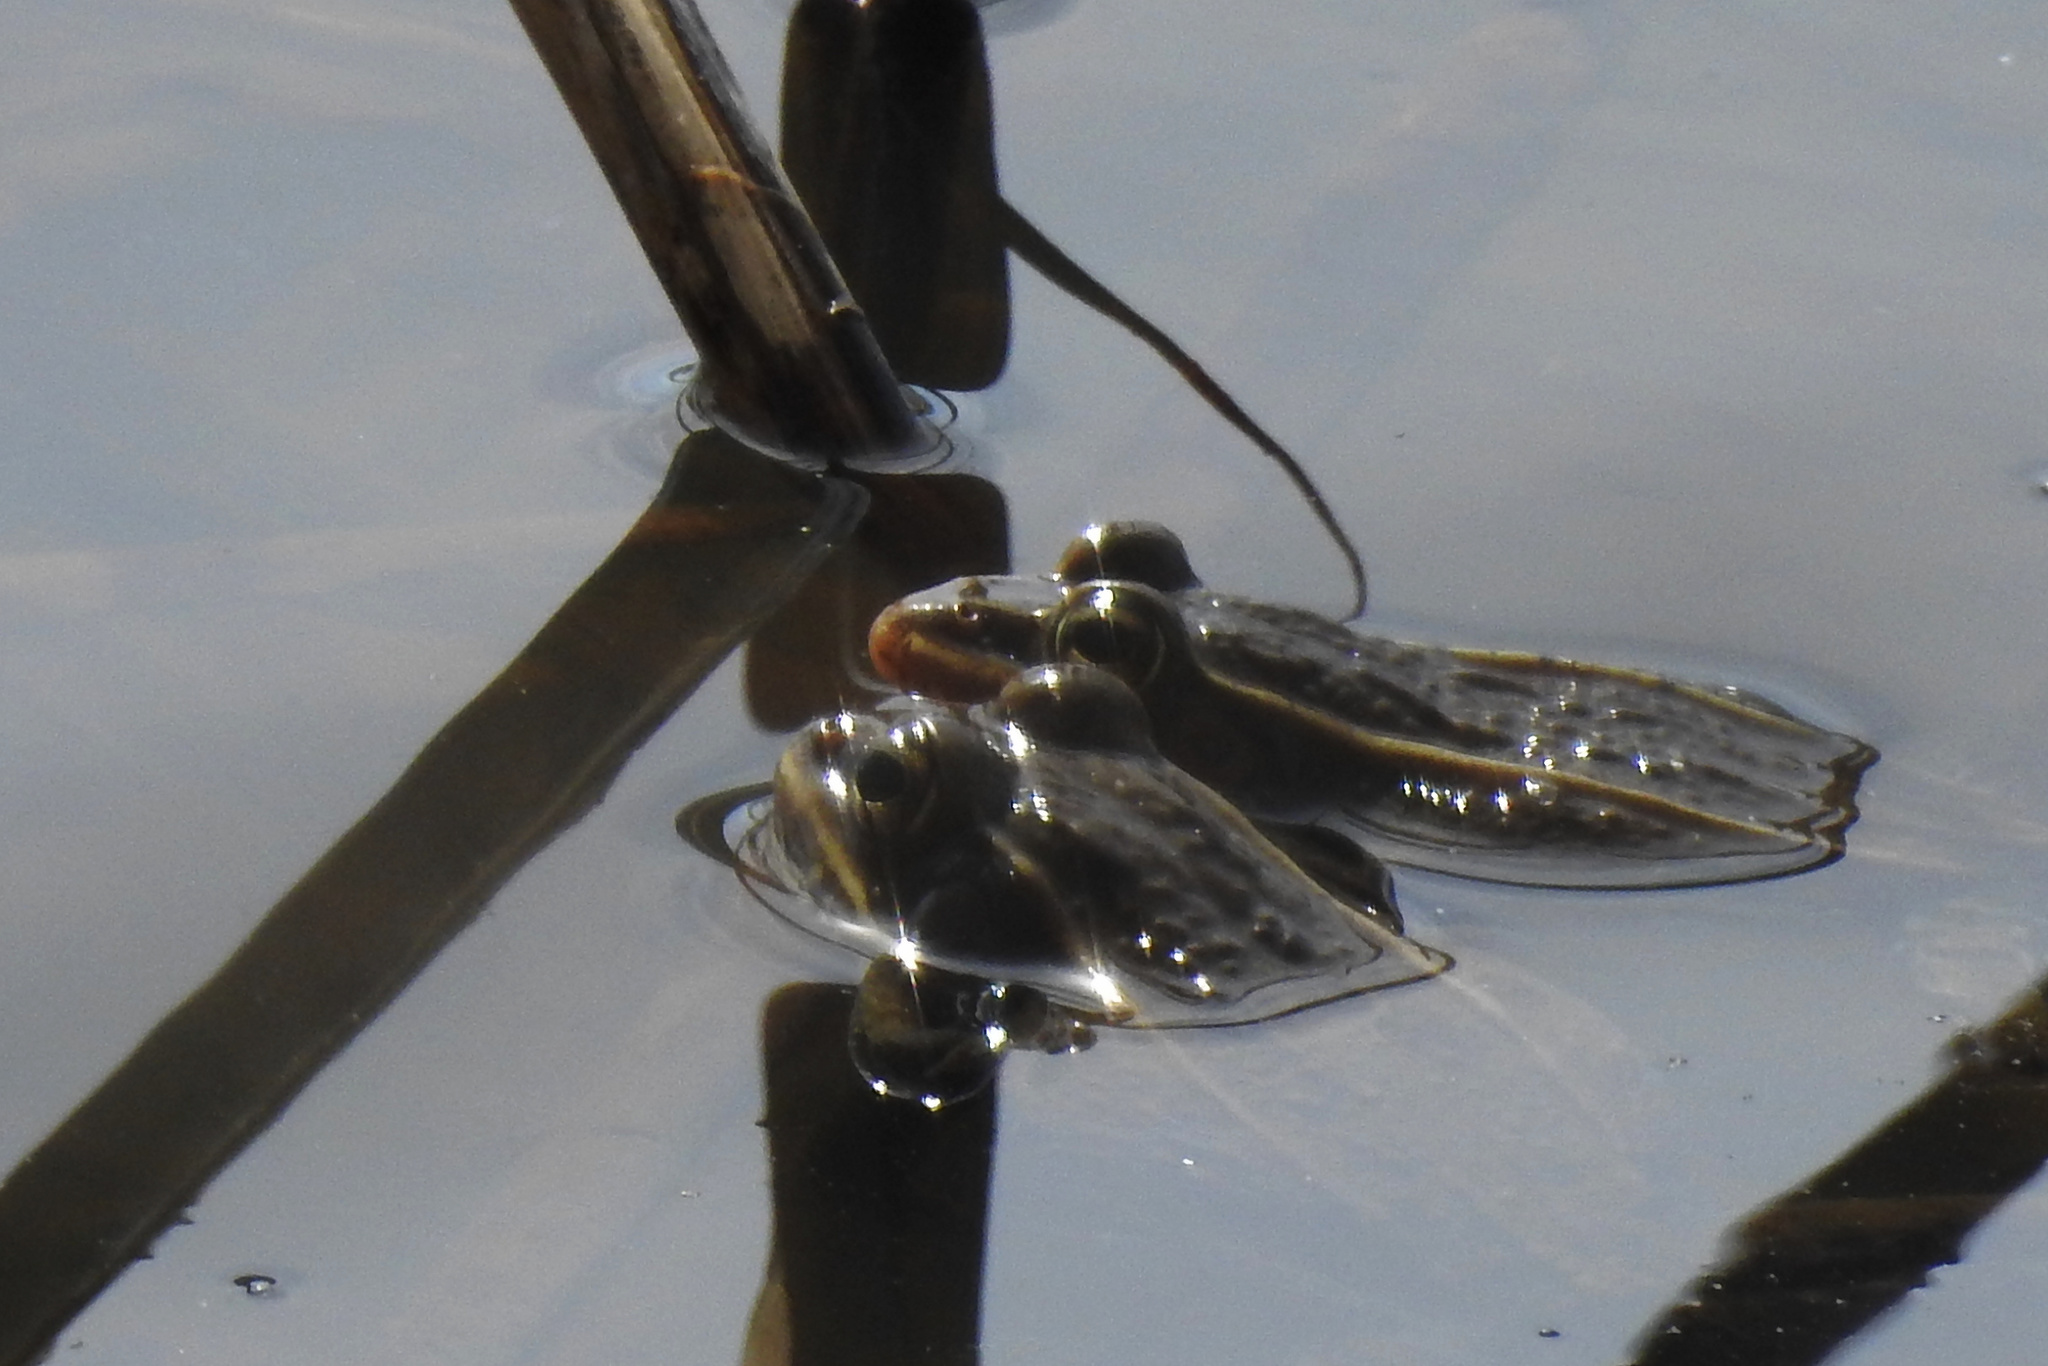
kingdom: Animalia
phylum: Chordata
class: Amphibia
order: Anura
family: Ranidae
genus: Lithobates
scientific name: Lithobates kauffeldi
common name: Mid-atlantic coast leopard frog
